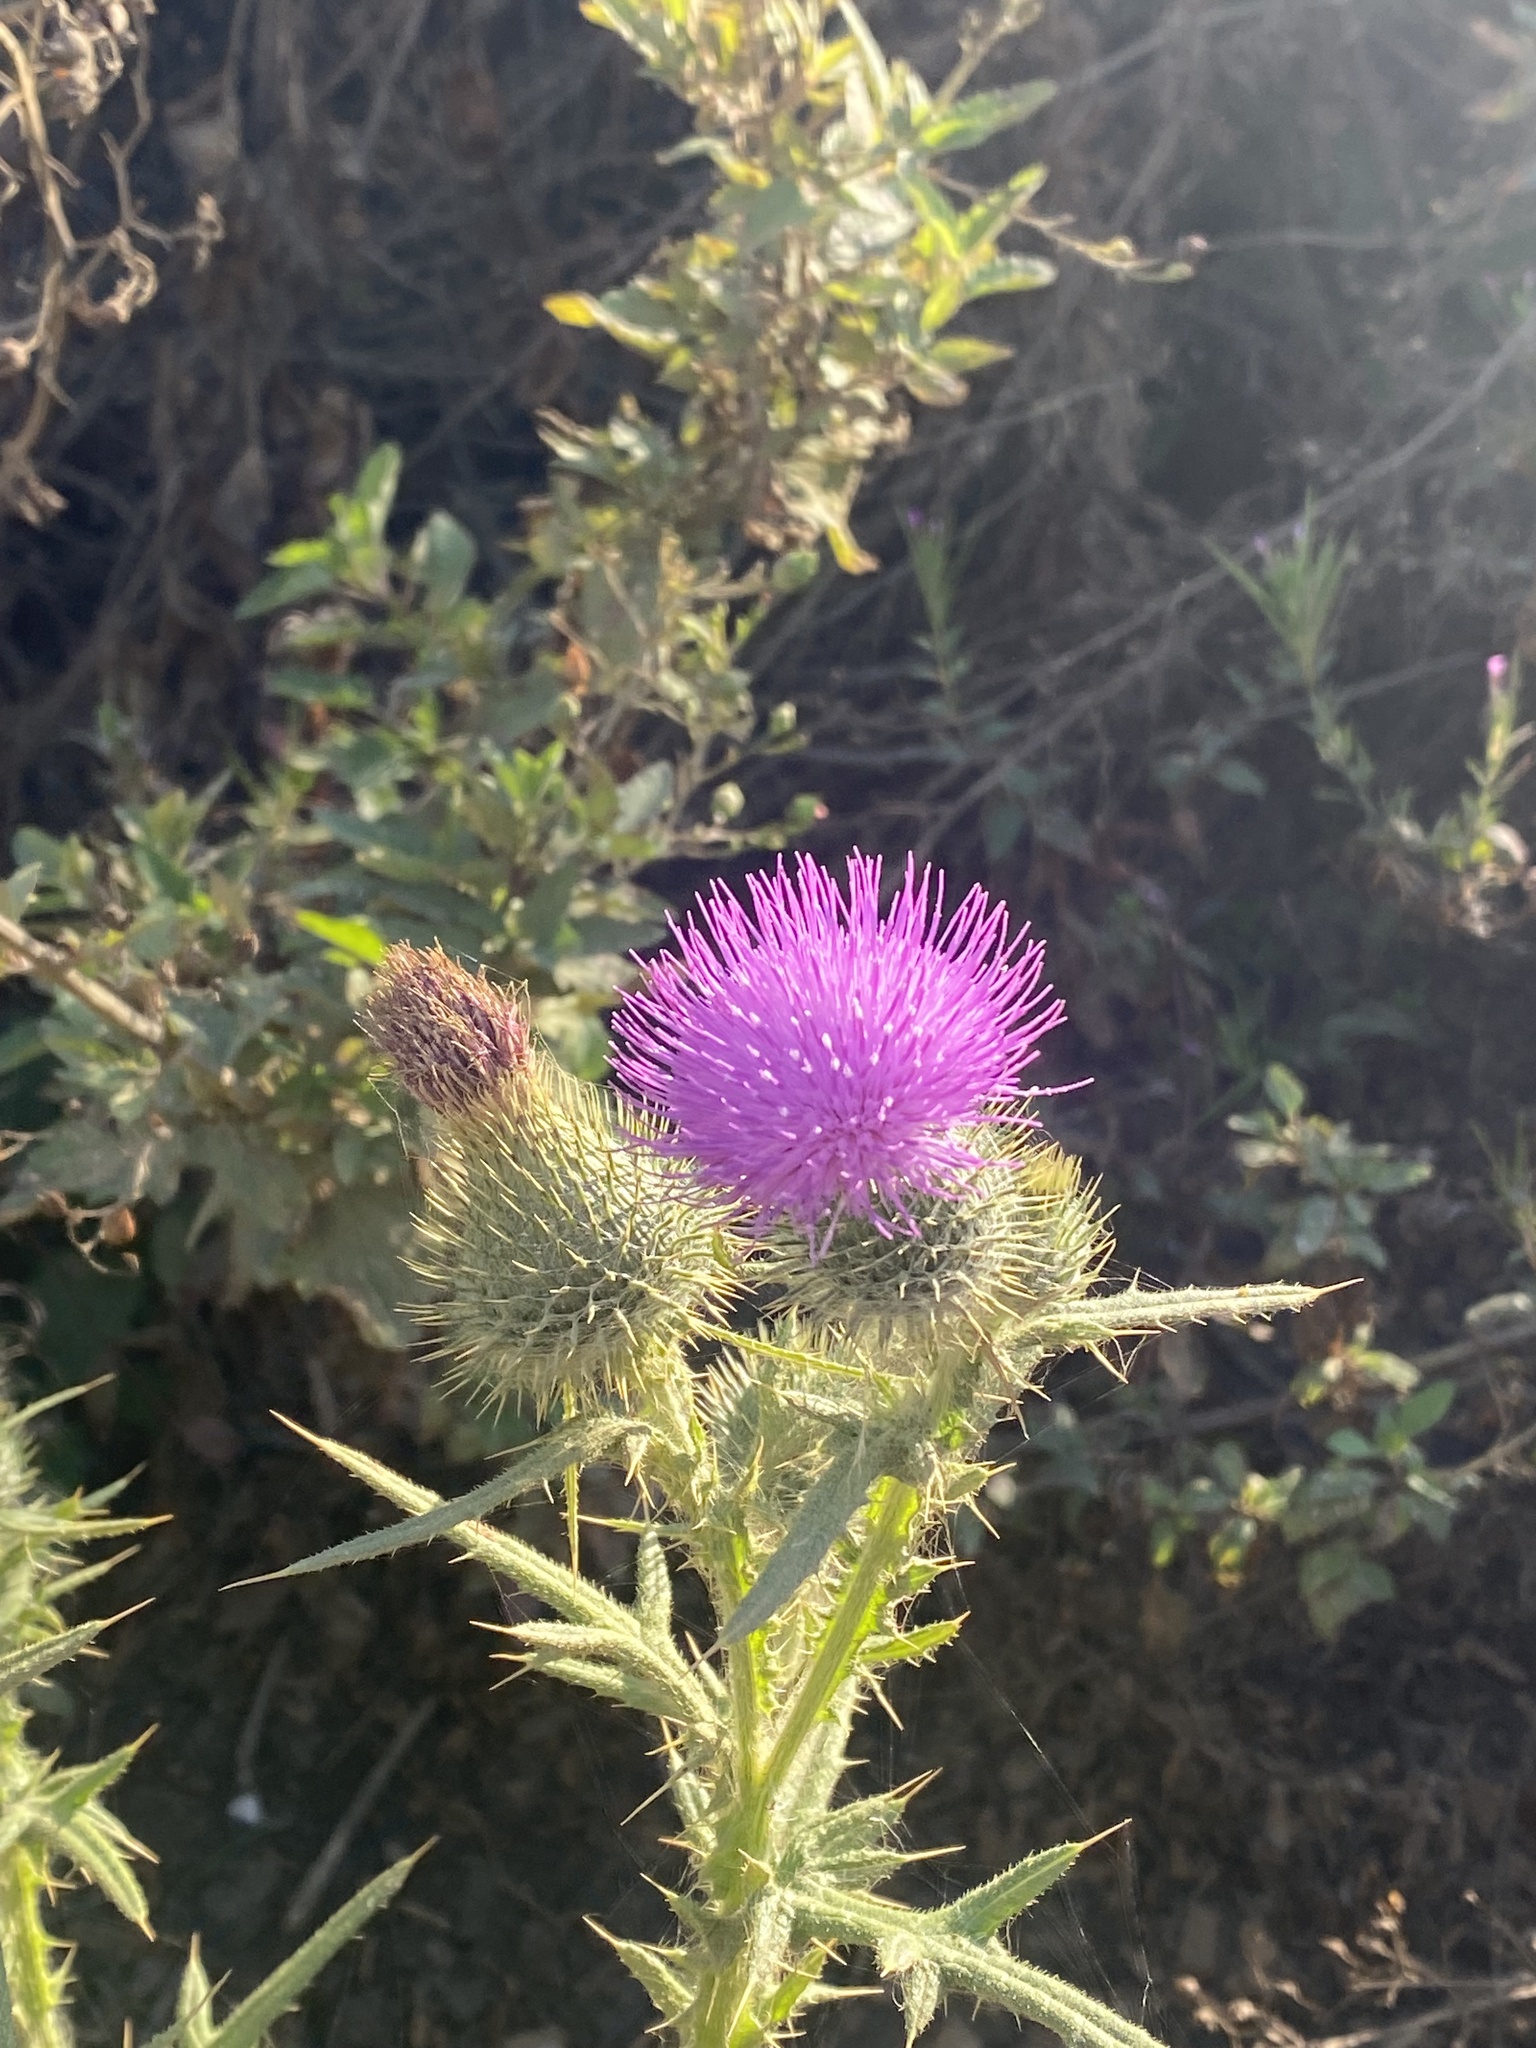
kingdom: Plantae
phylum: Tracheophyta
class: Magnoliopsida
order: Asterales
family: Asteraceae
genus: Cirsium
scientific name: Cirsium vulgare
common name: Bull thistle
